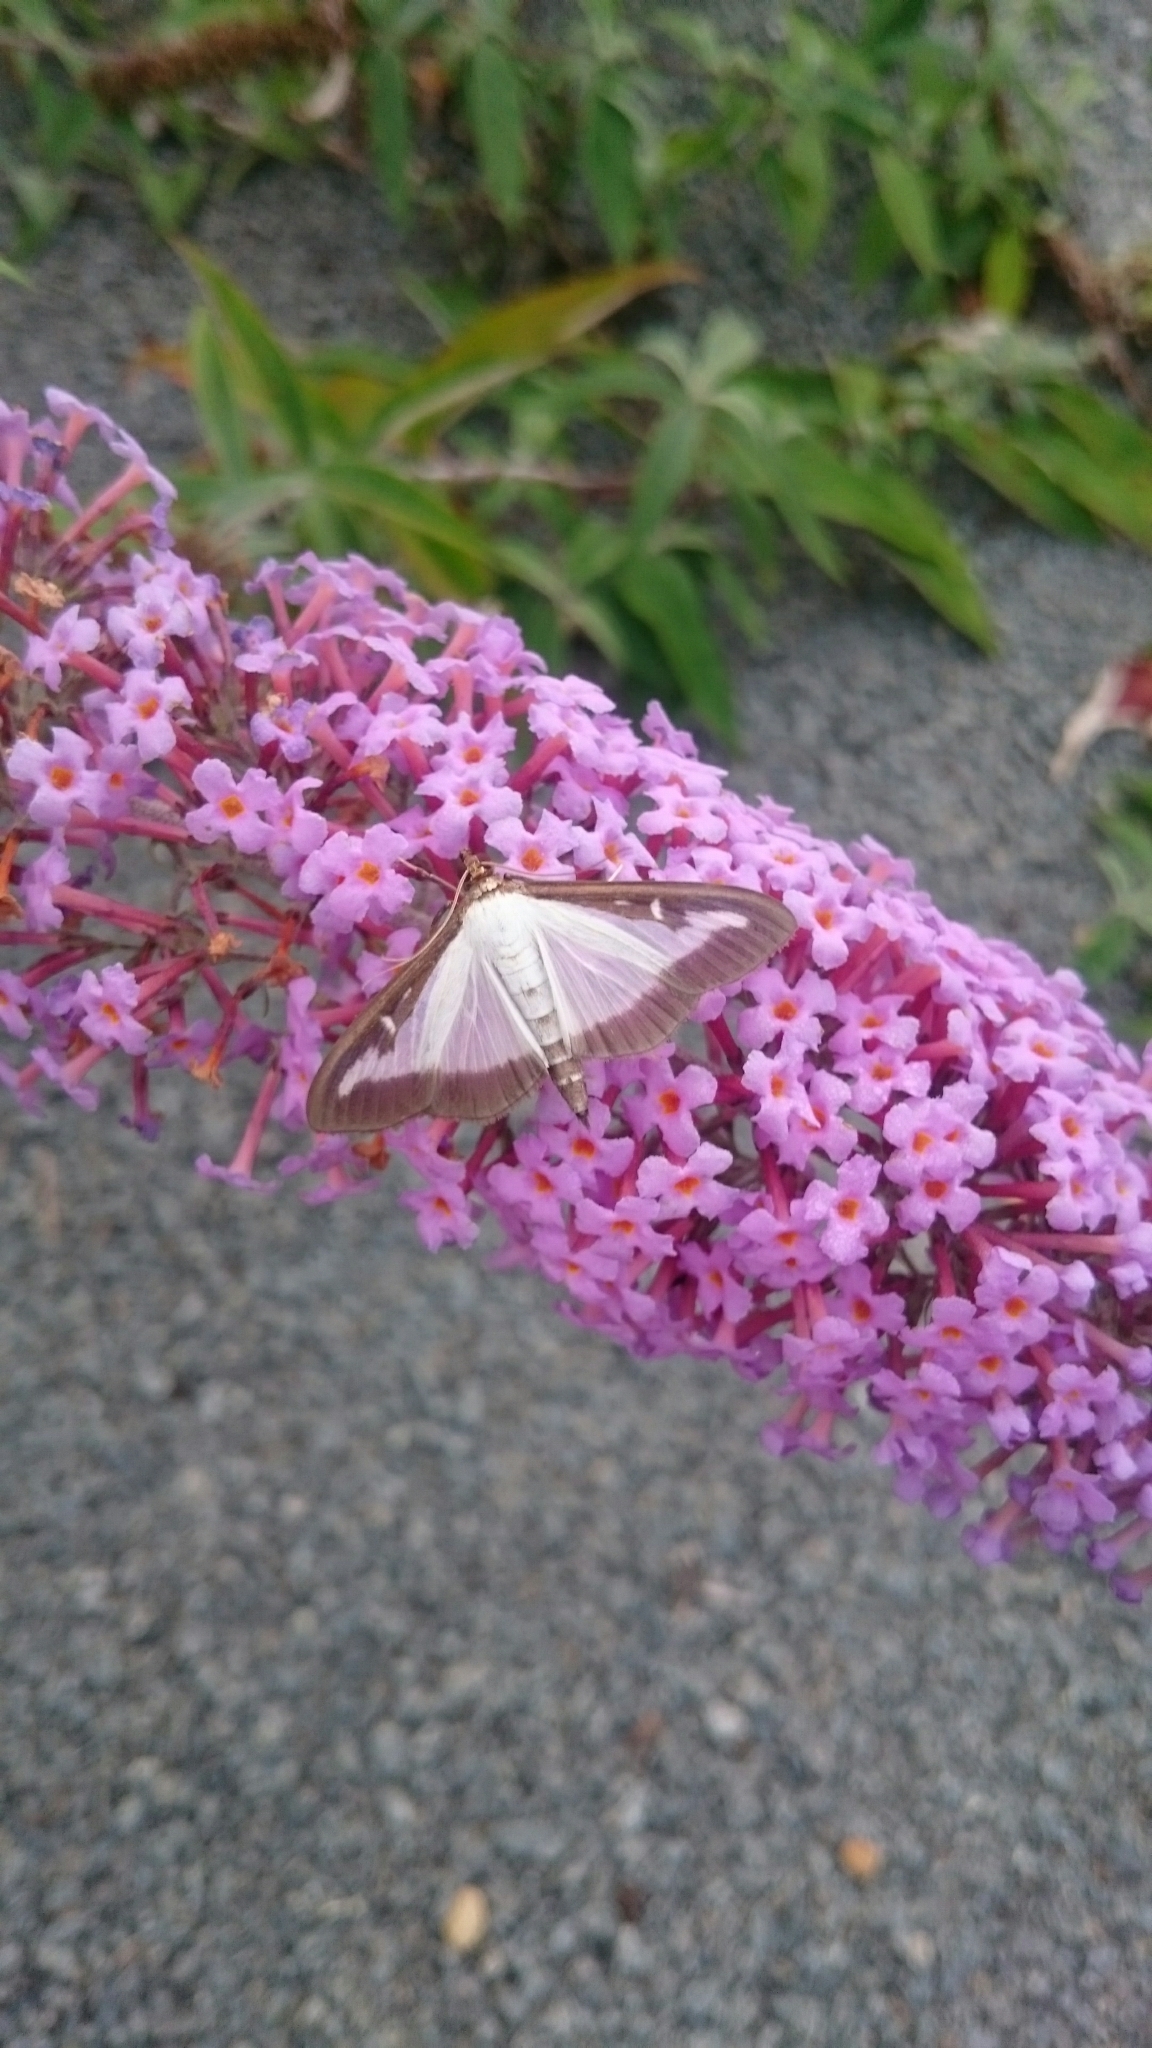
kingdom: Animalia
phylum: Arthropoda
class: Insecta
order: Lepidoptera
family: Crambidae
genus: Cydalima
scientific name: Cydalima perspectalis
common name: Box tree moth
